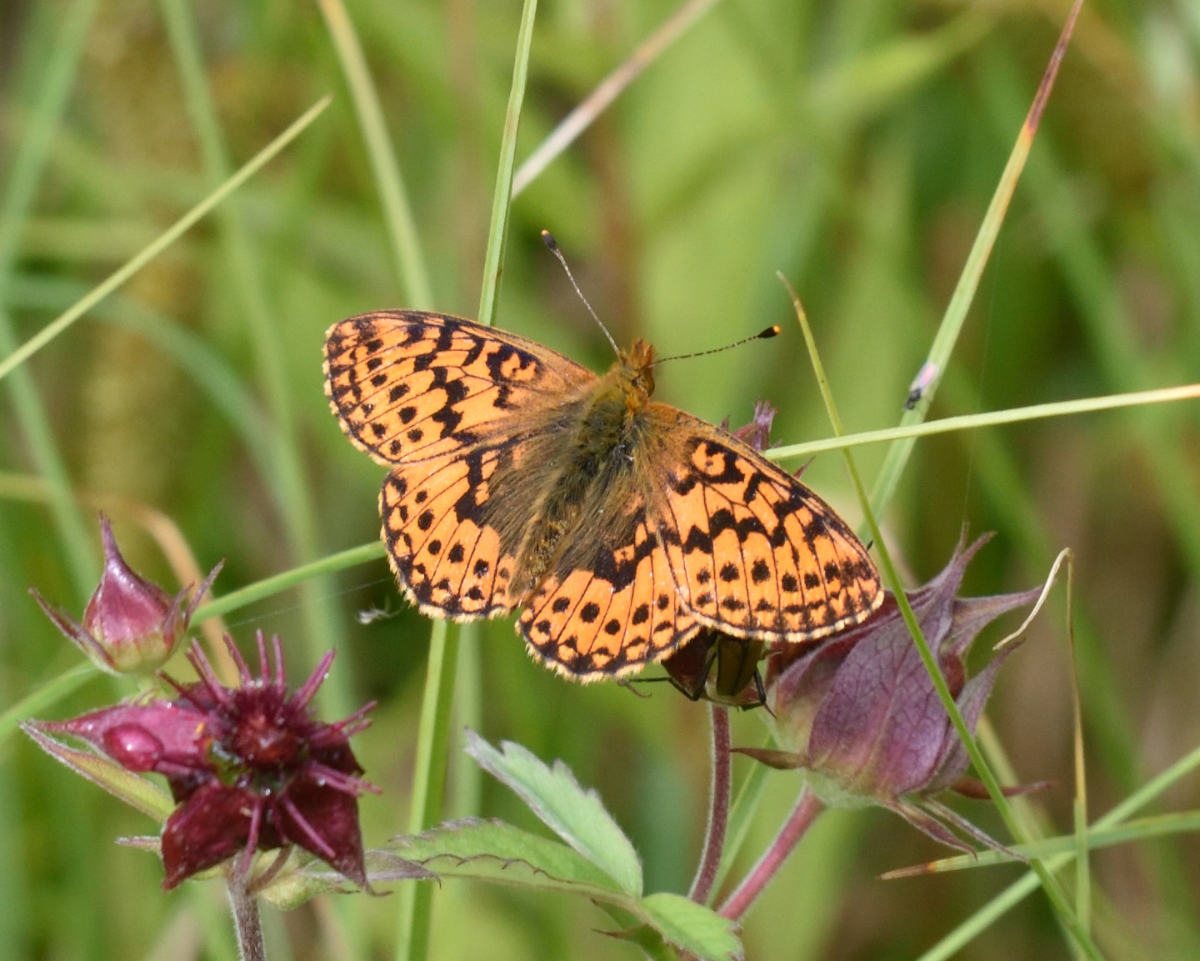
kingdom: Animalia
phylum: Arthropoda
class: Insecta
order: Lepidoptera
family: Nymphalidae
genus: Boloria
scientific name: Boloria aquilonaris
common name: Cranberry fritillary
